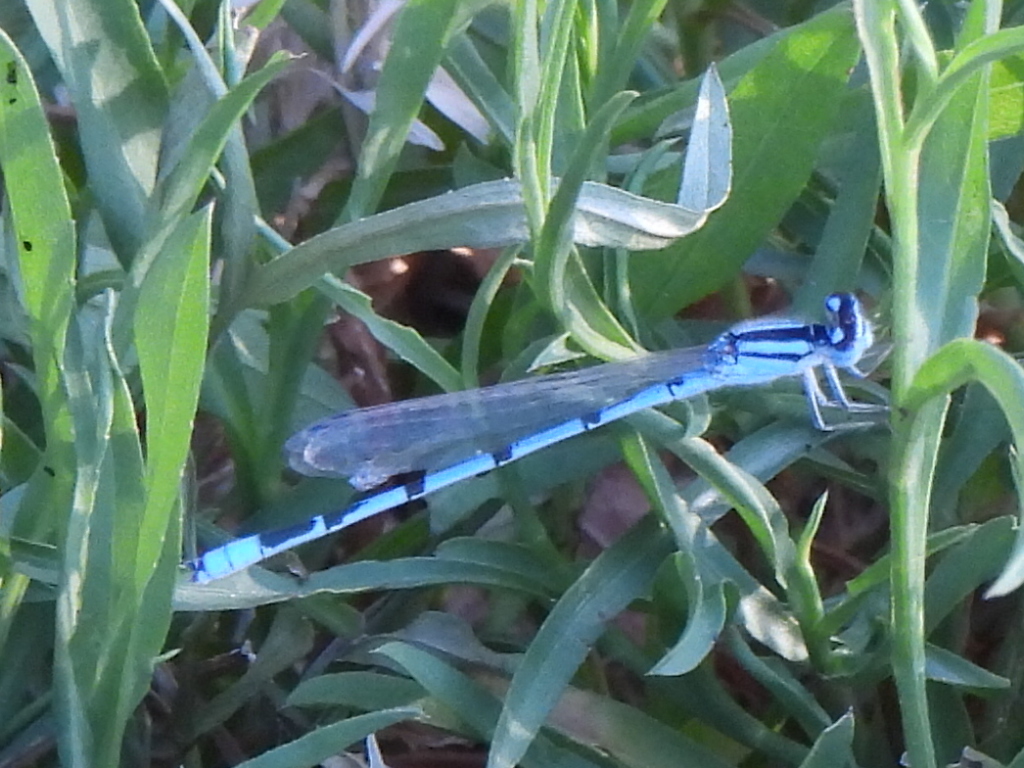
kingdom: Animalia
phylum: Arthropoda
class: Insecta
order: Odonata
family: Coenagrionidae
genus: Enallagma
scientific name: Enallagma civile
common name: Damselfly
